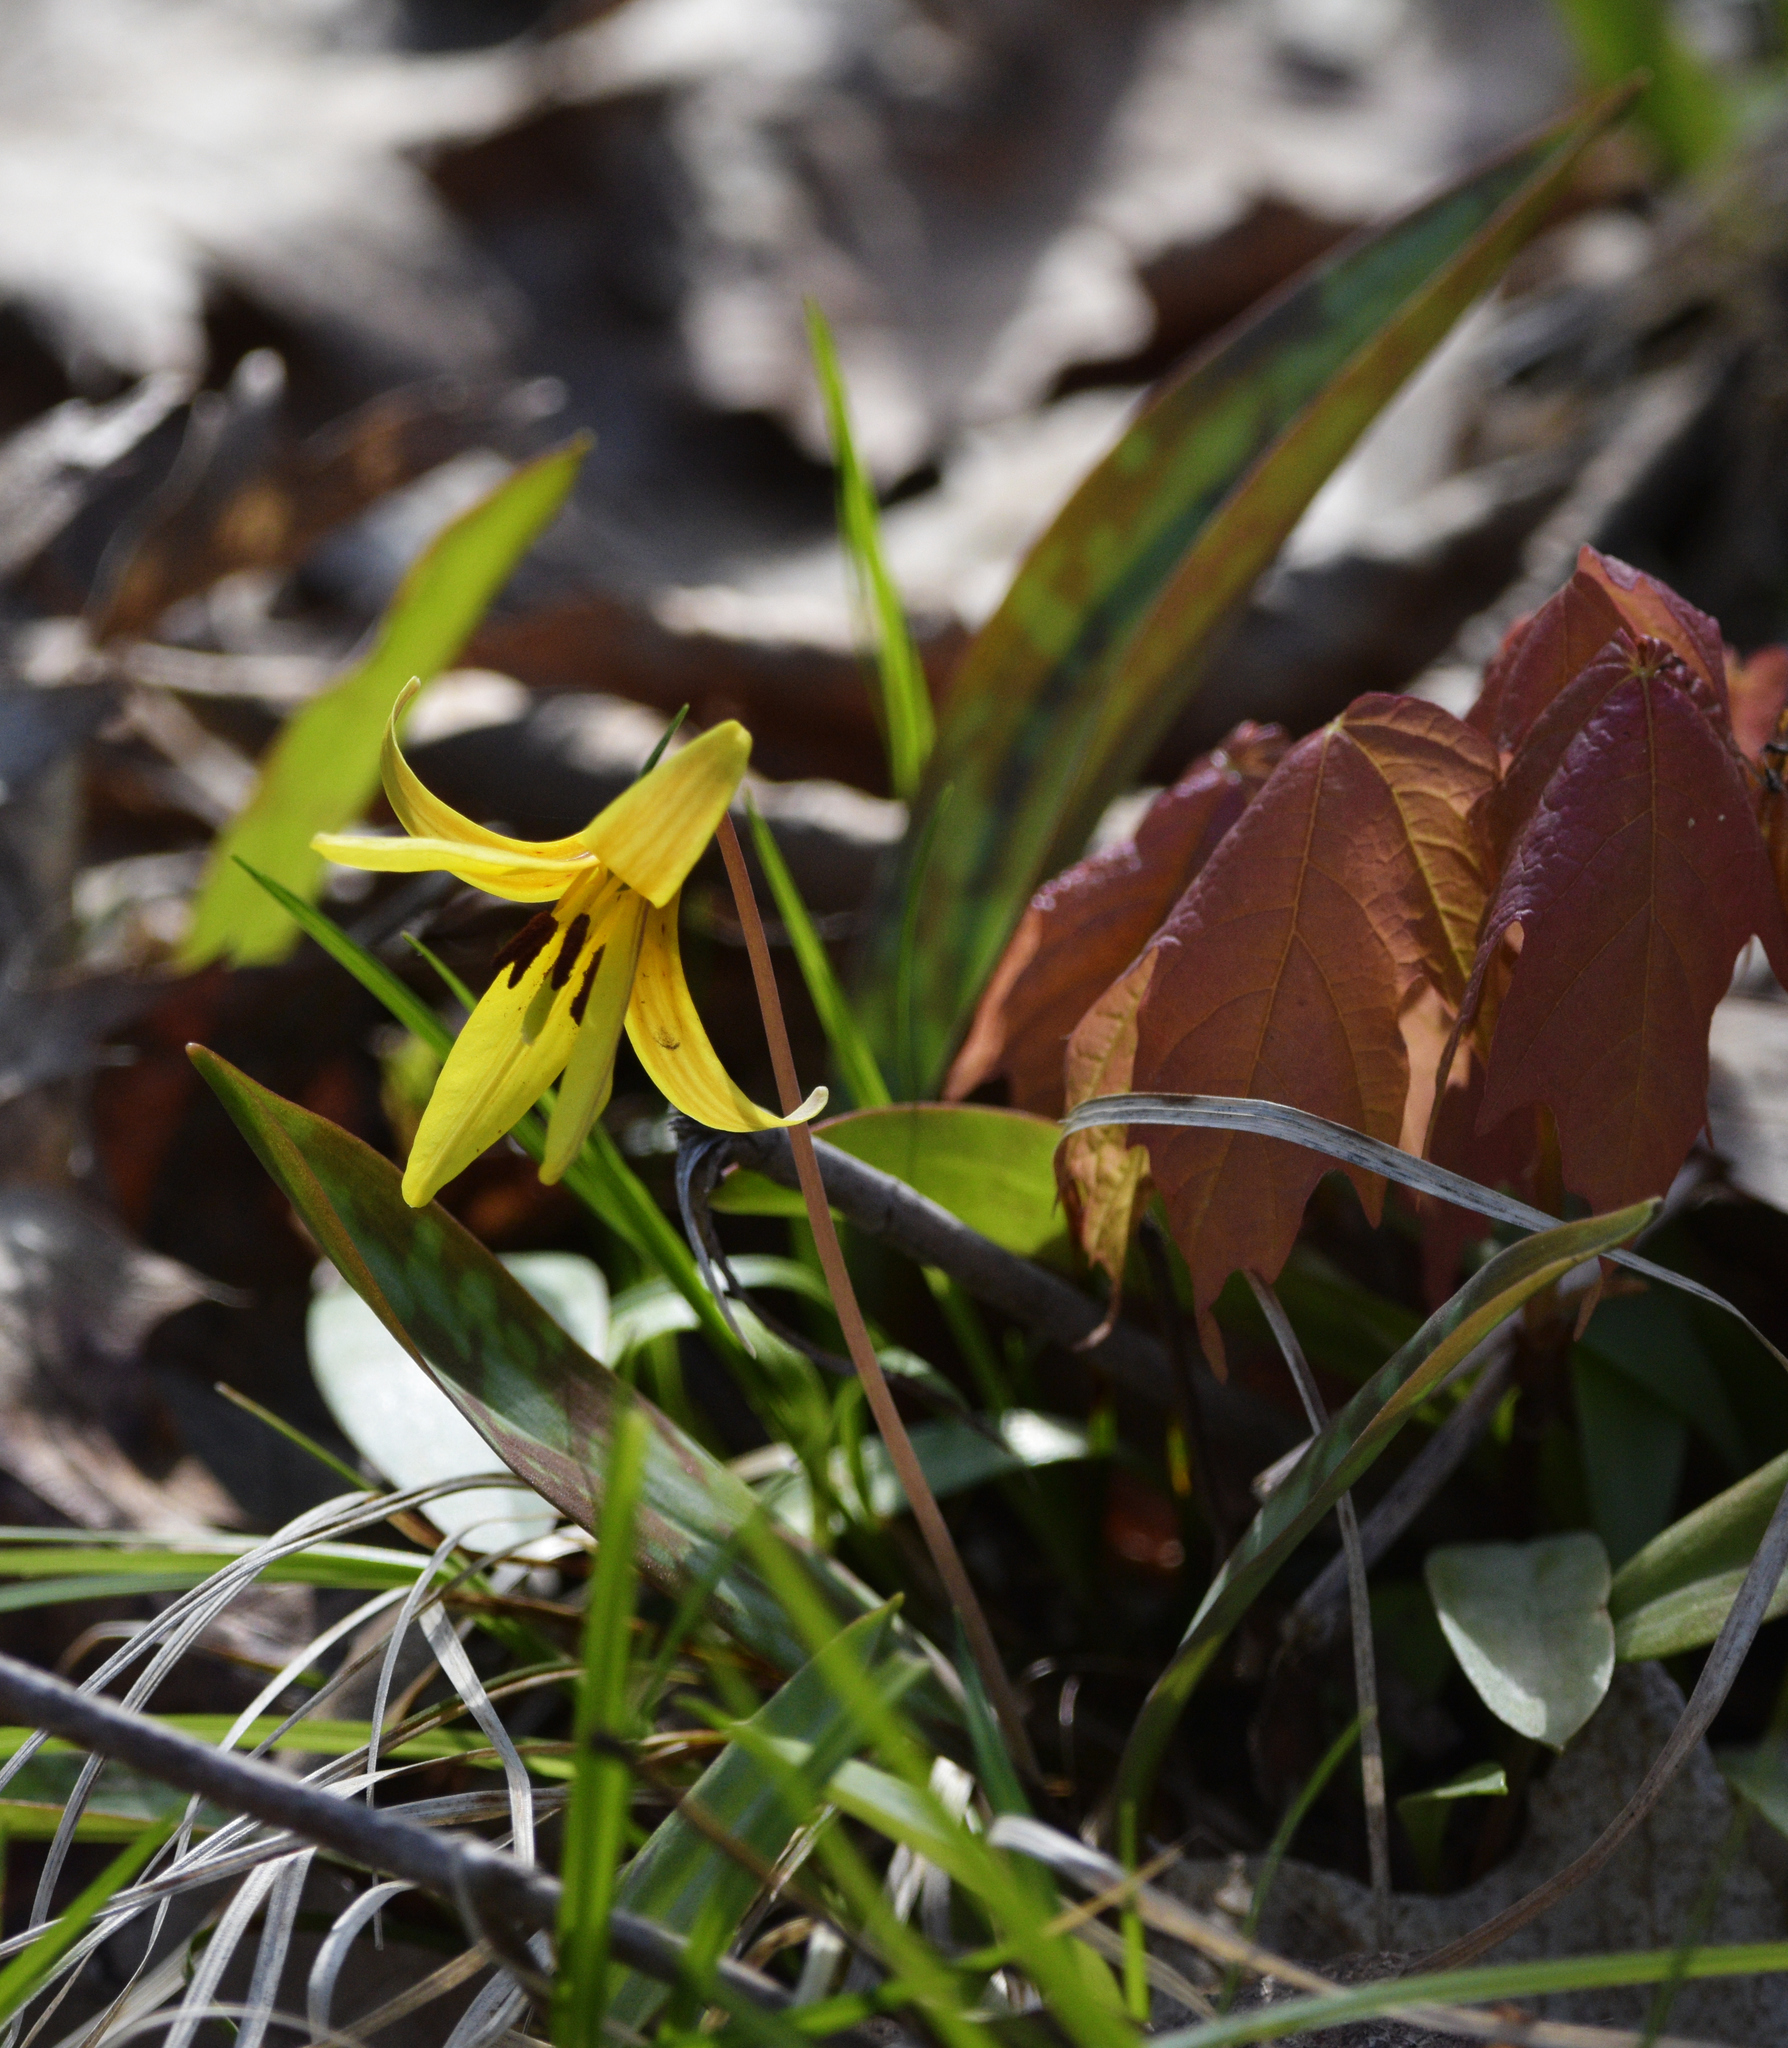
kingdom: Plantae
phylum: Tracheophyta
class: Liliopsida
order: Liliales
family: Liliaceae
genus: Erythronium
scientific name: Erythronium americanum
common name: Yellow adder's-tongue
